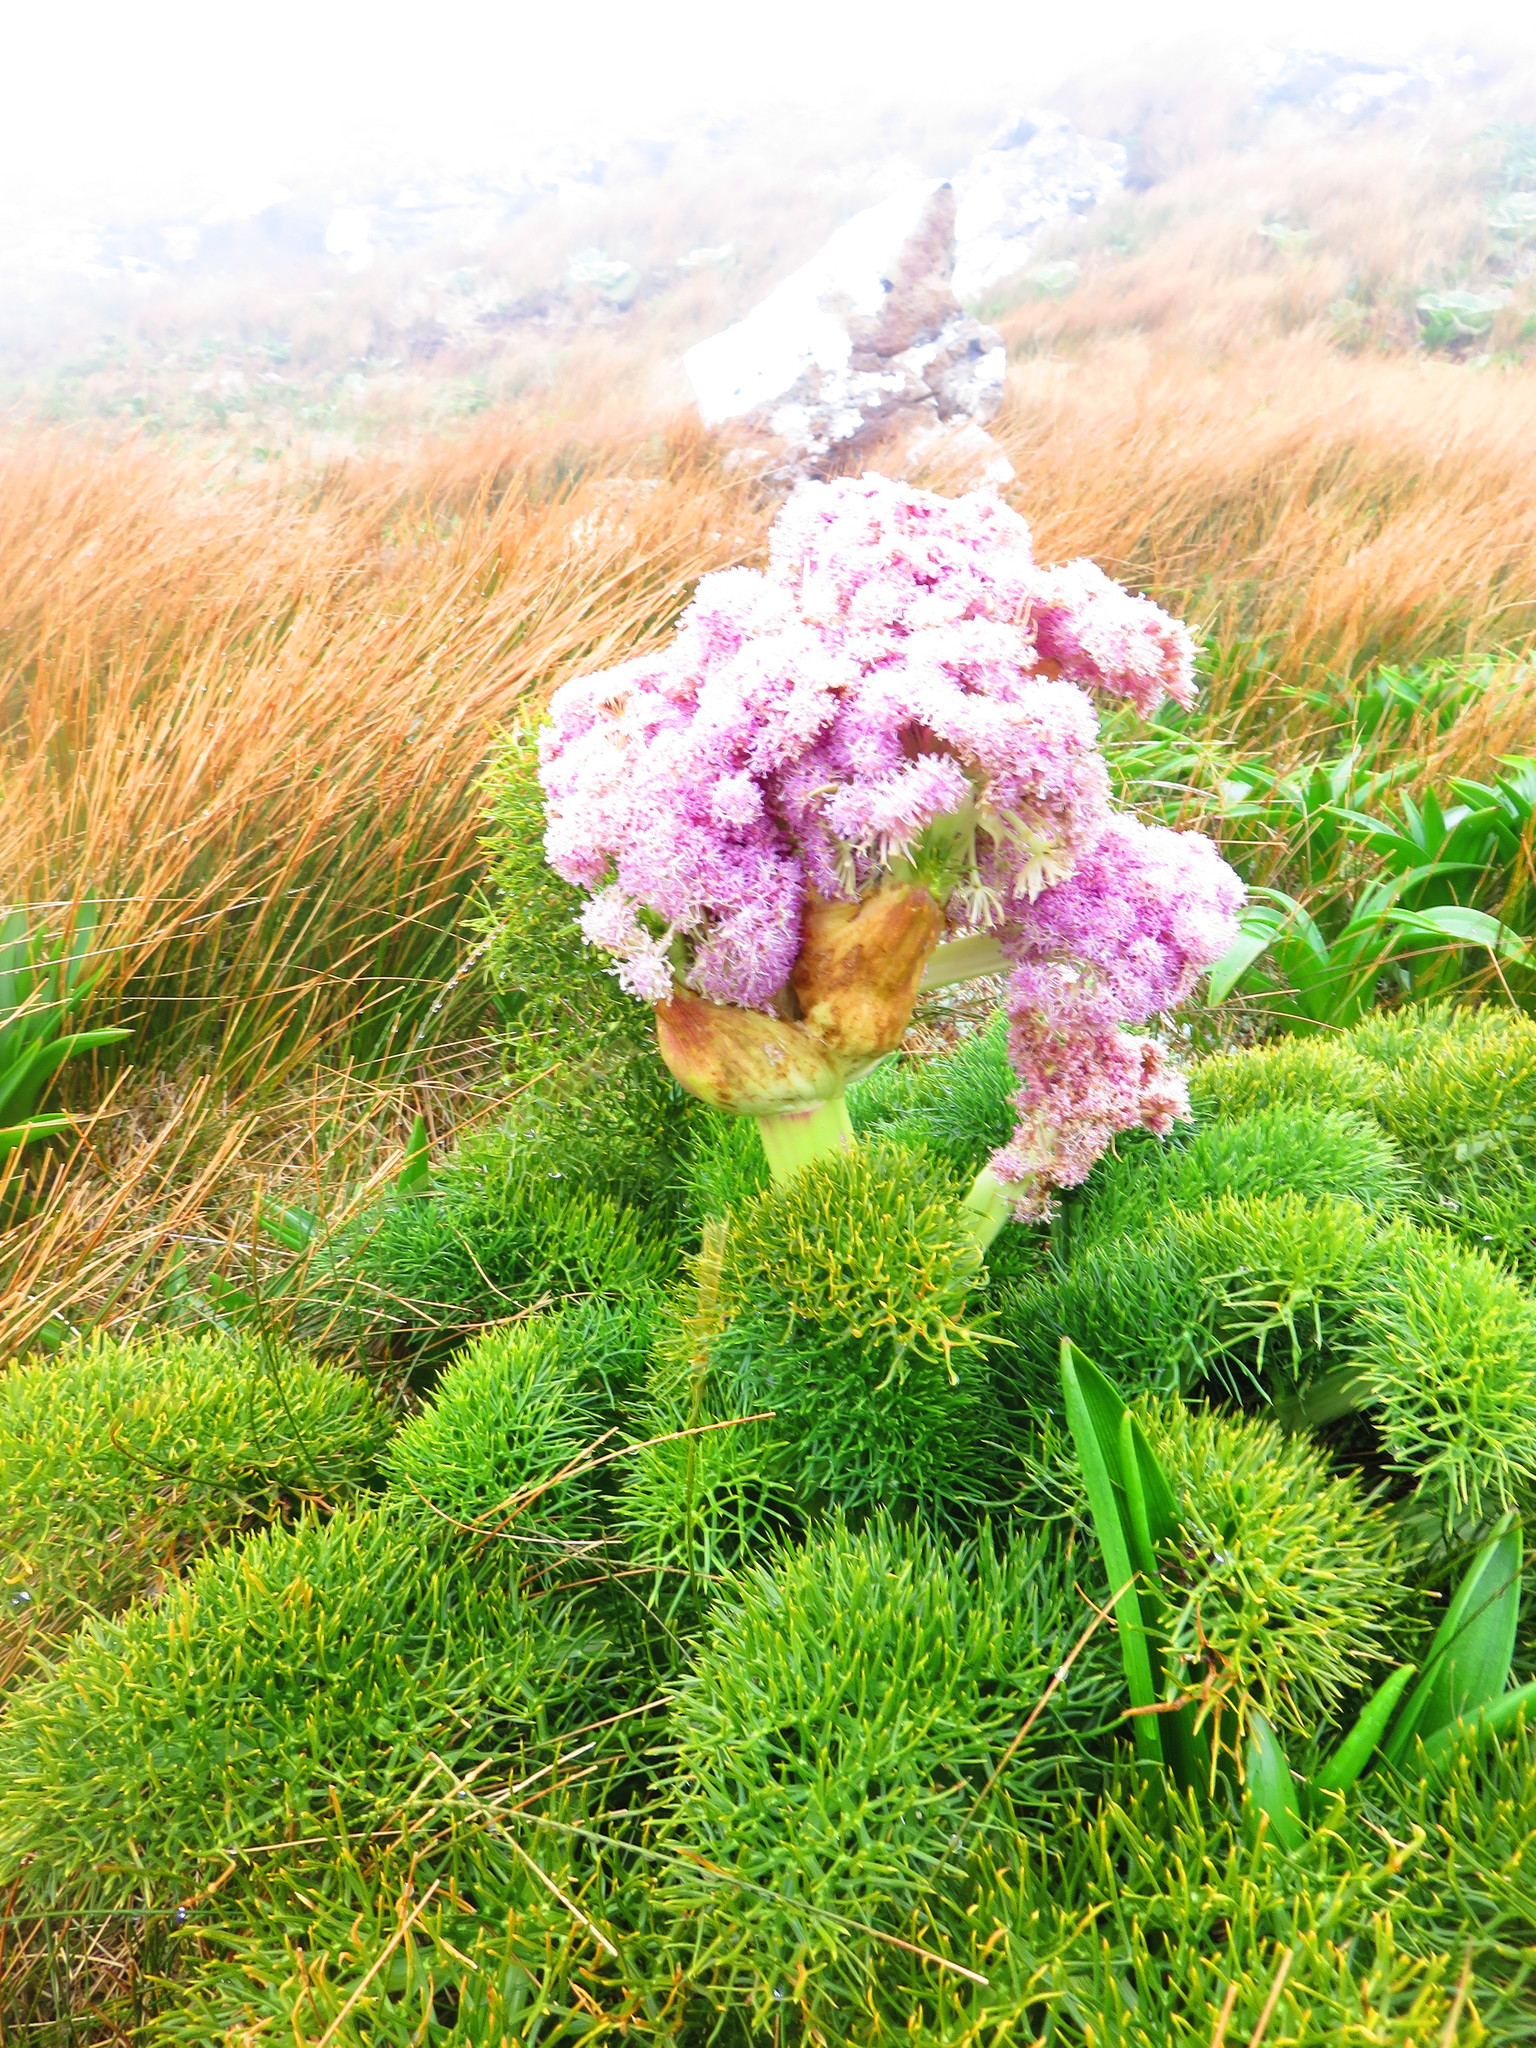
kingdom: Plantae
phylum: Tracheophyta
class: Magnoliopsida
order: Apiales
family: Apiaceae
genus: Anisotome
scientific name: Anisotome antipoda
